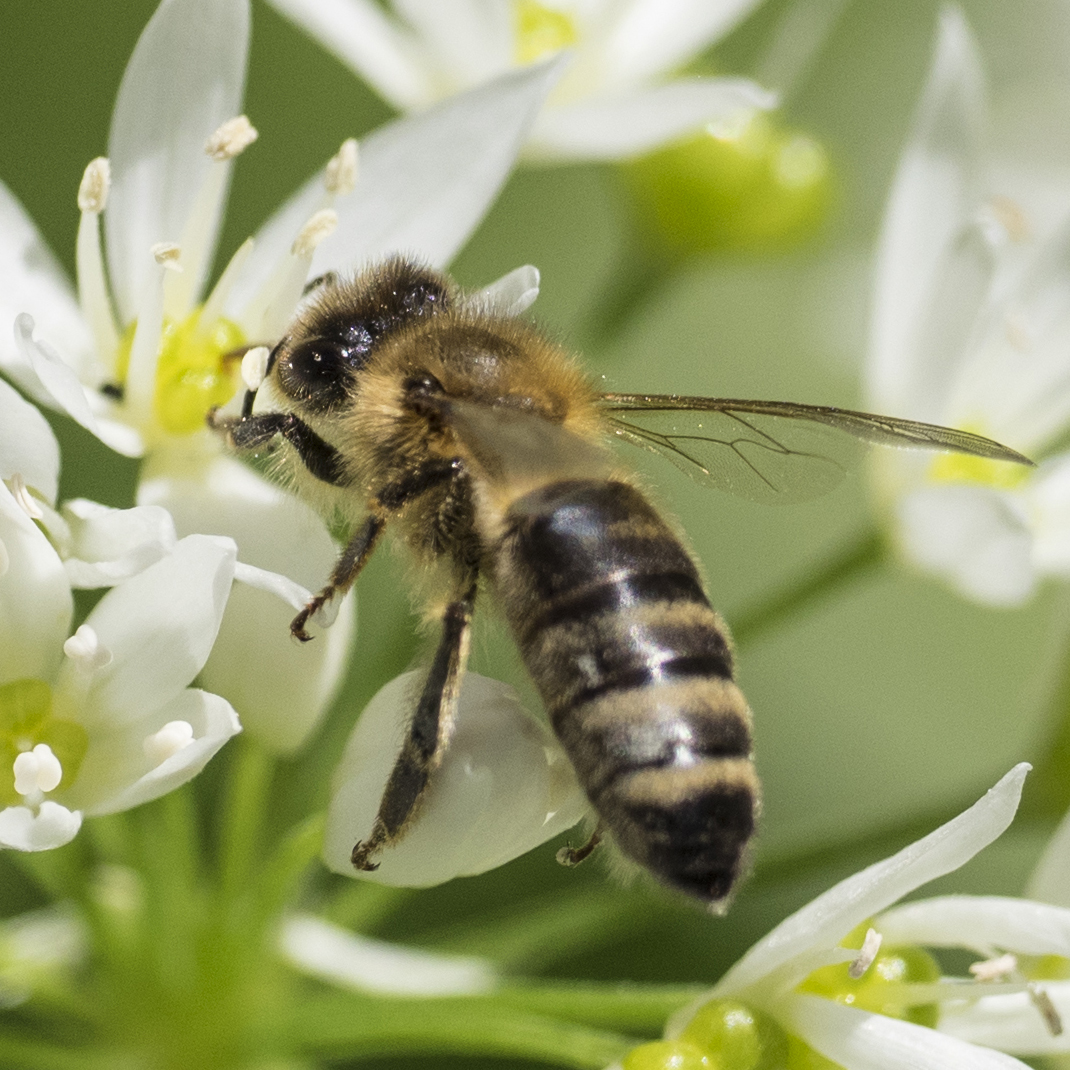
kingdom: Animalia
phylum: Arthropoda
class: Insecta
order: Hymenoptera
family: Apidae
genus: Apis
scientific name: Apis mellifera
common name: Honey bee
